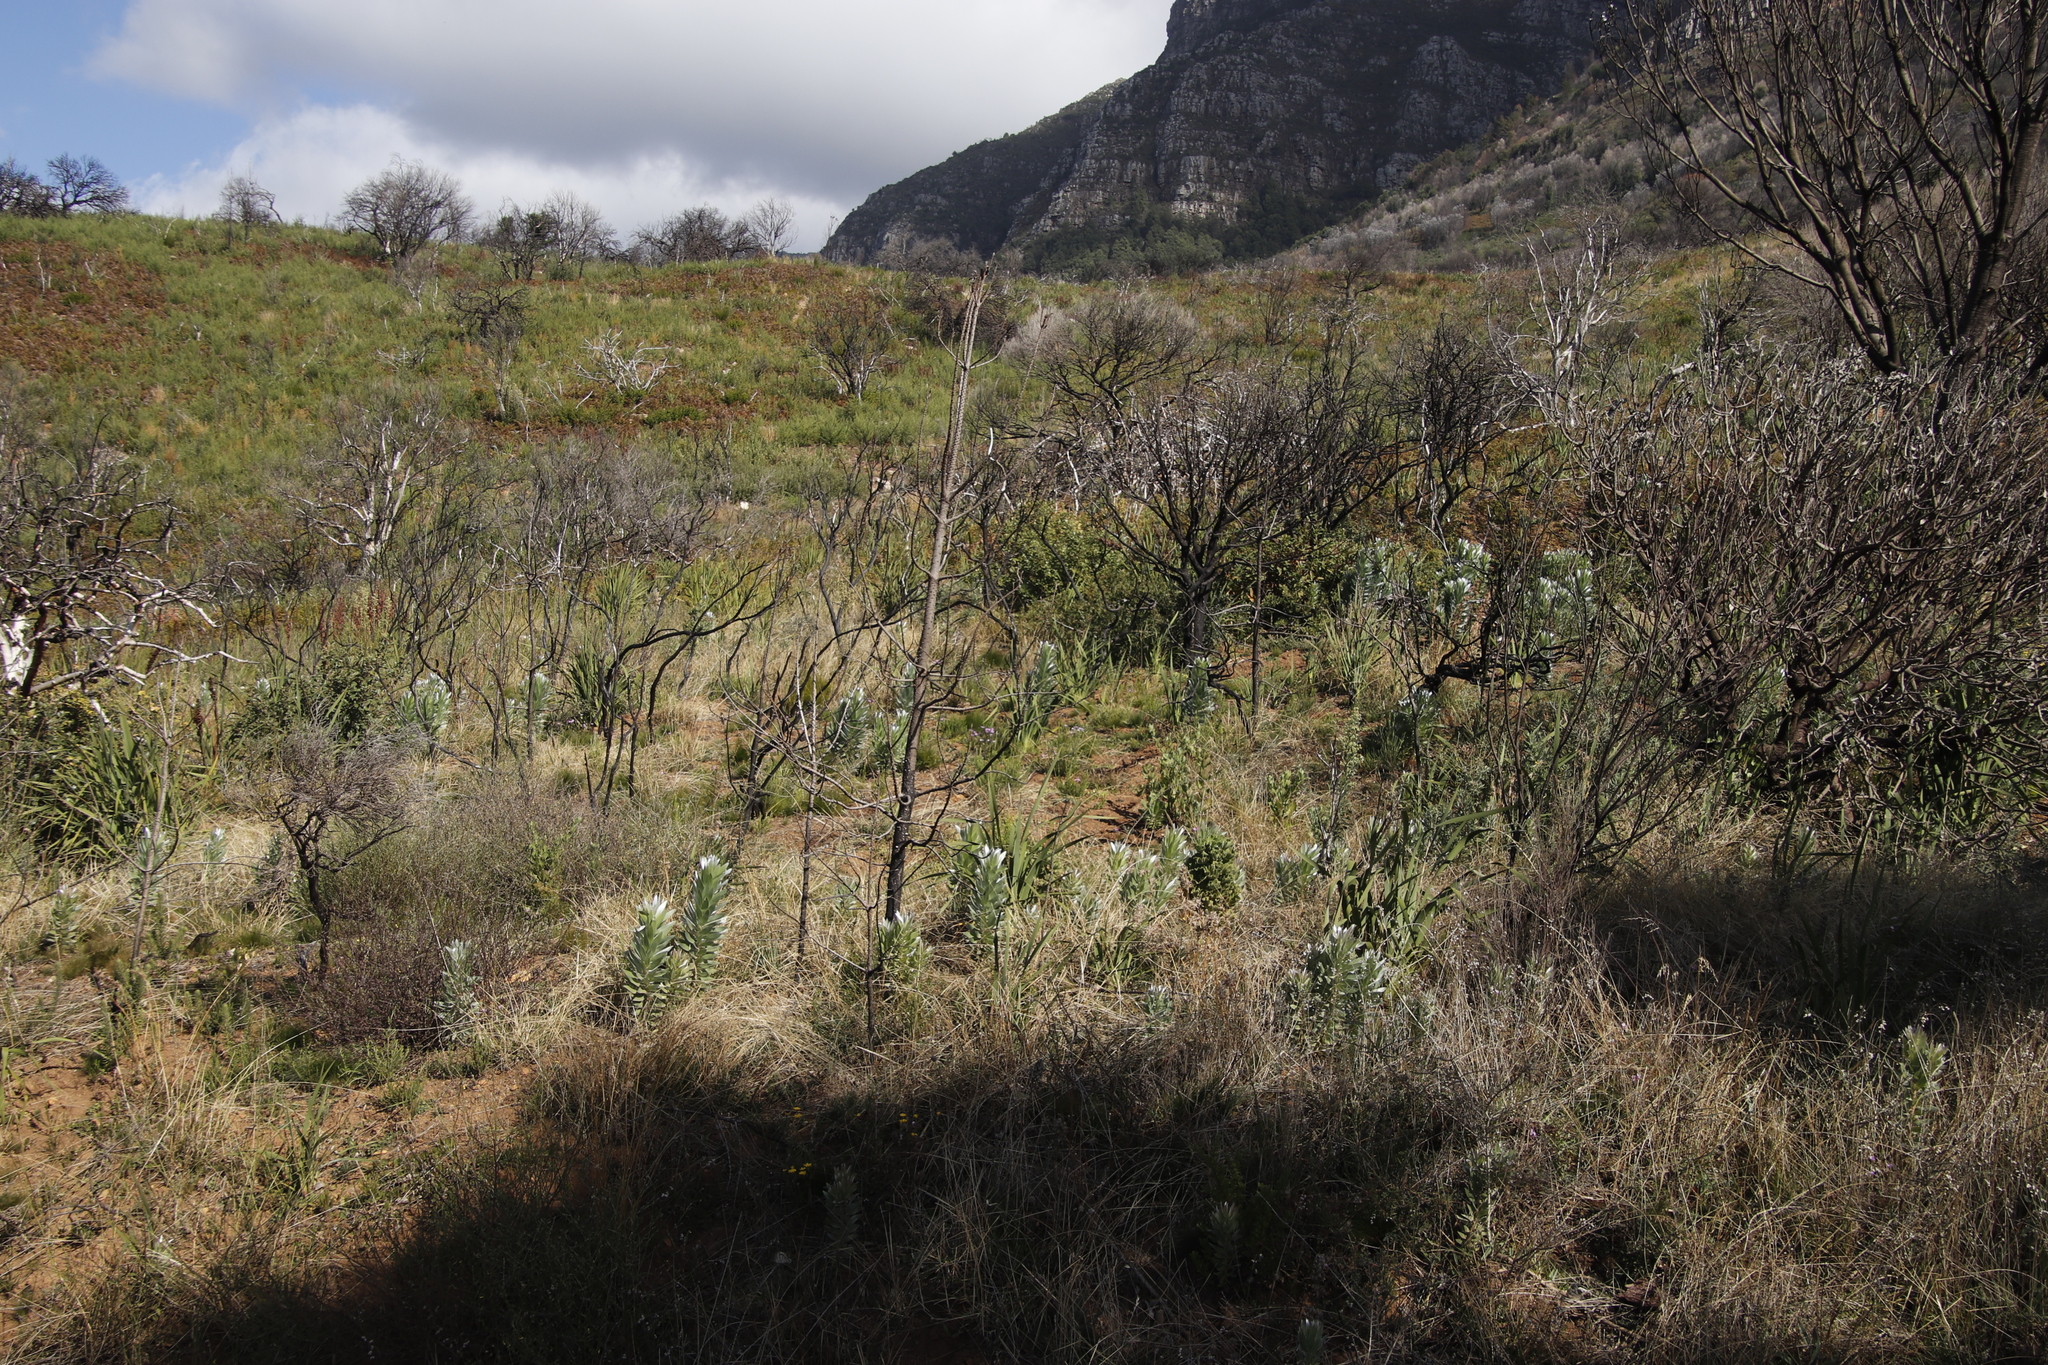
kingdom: Plantae
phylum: Tracheophyta
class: Magnoliopsida
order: Proteales
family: Proteaceae
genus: Leucadendron
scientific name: Leucadendron argenteum
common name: Cape silver tree
